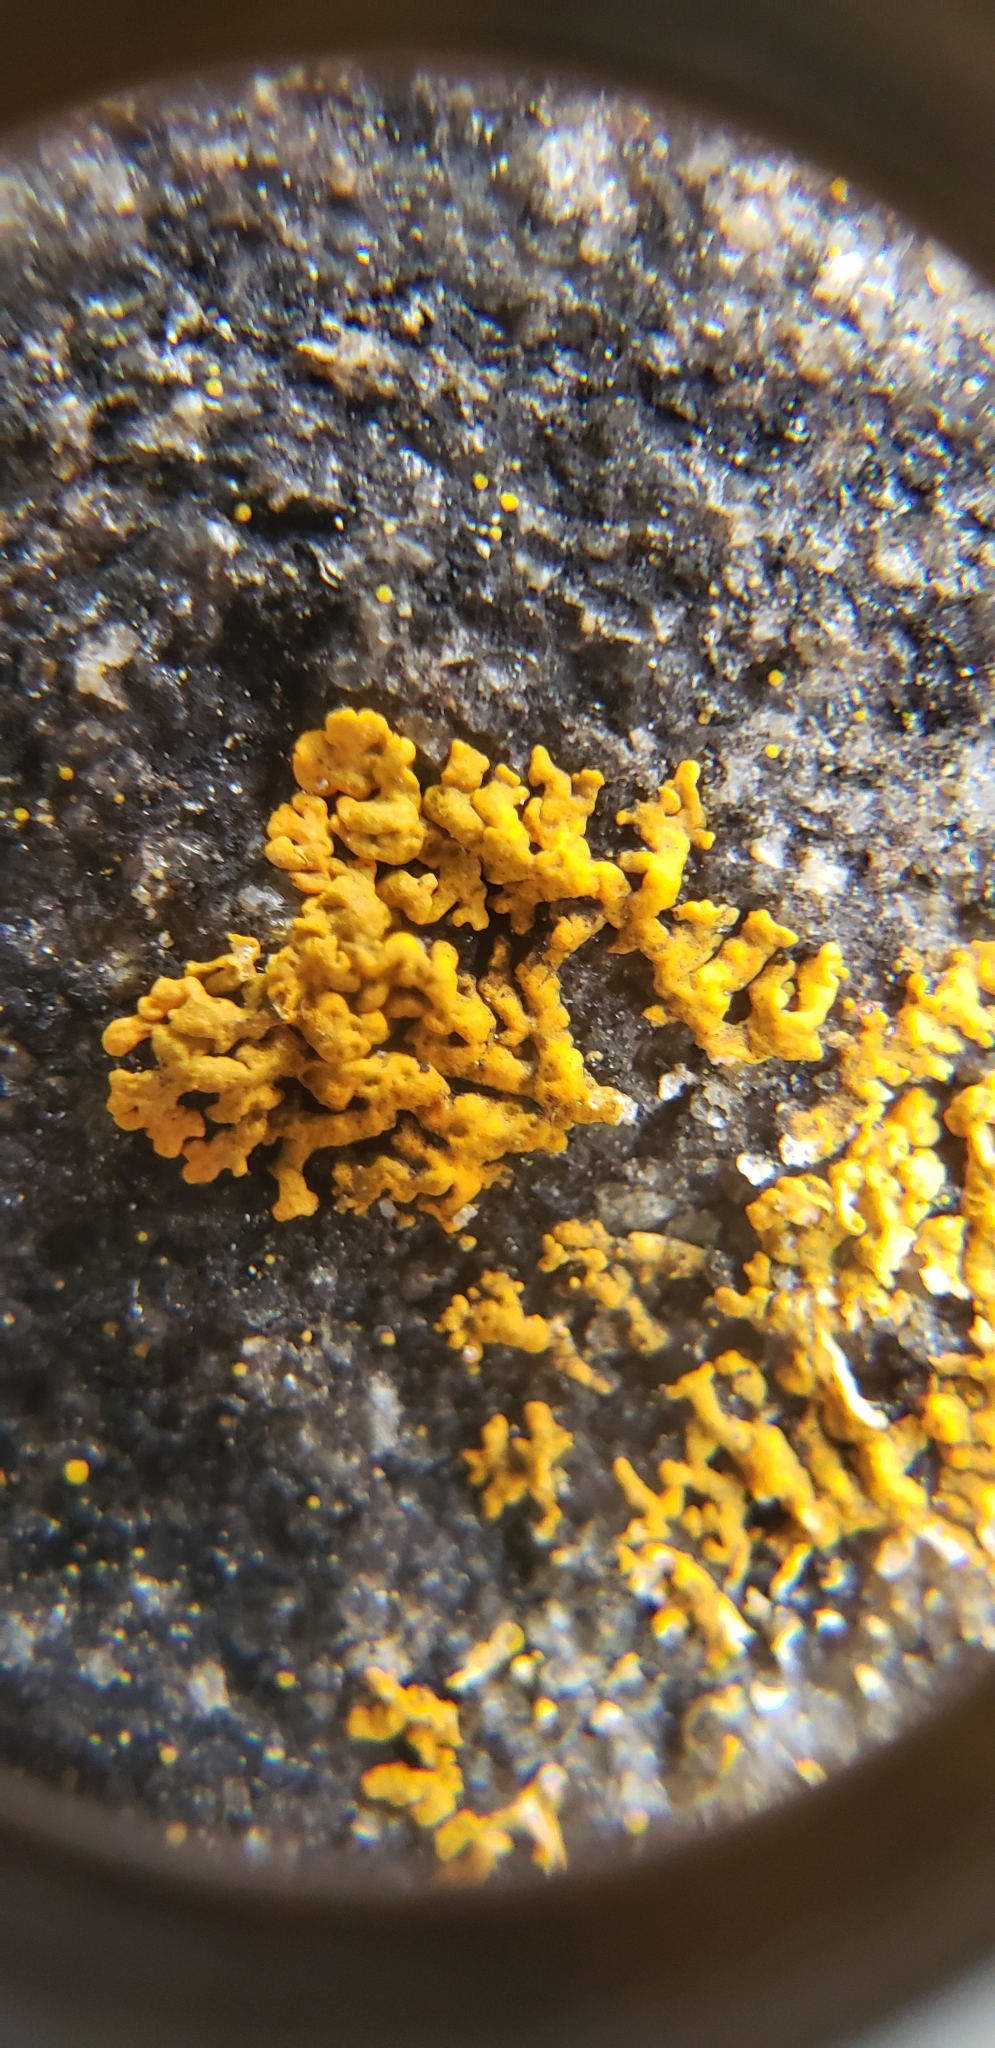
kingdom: Fungi
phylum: Ascomycota
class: Lecanoromycetes
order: Teloschistales
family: Teloschistaceae
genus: Xanthoria
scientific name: Xanthoria elegans
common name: Elegant sunburst lichen
